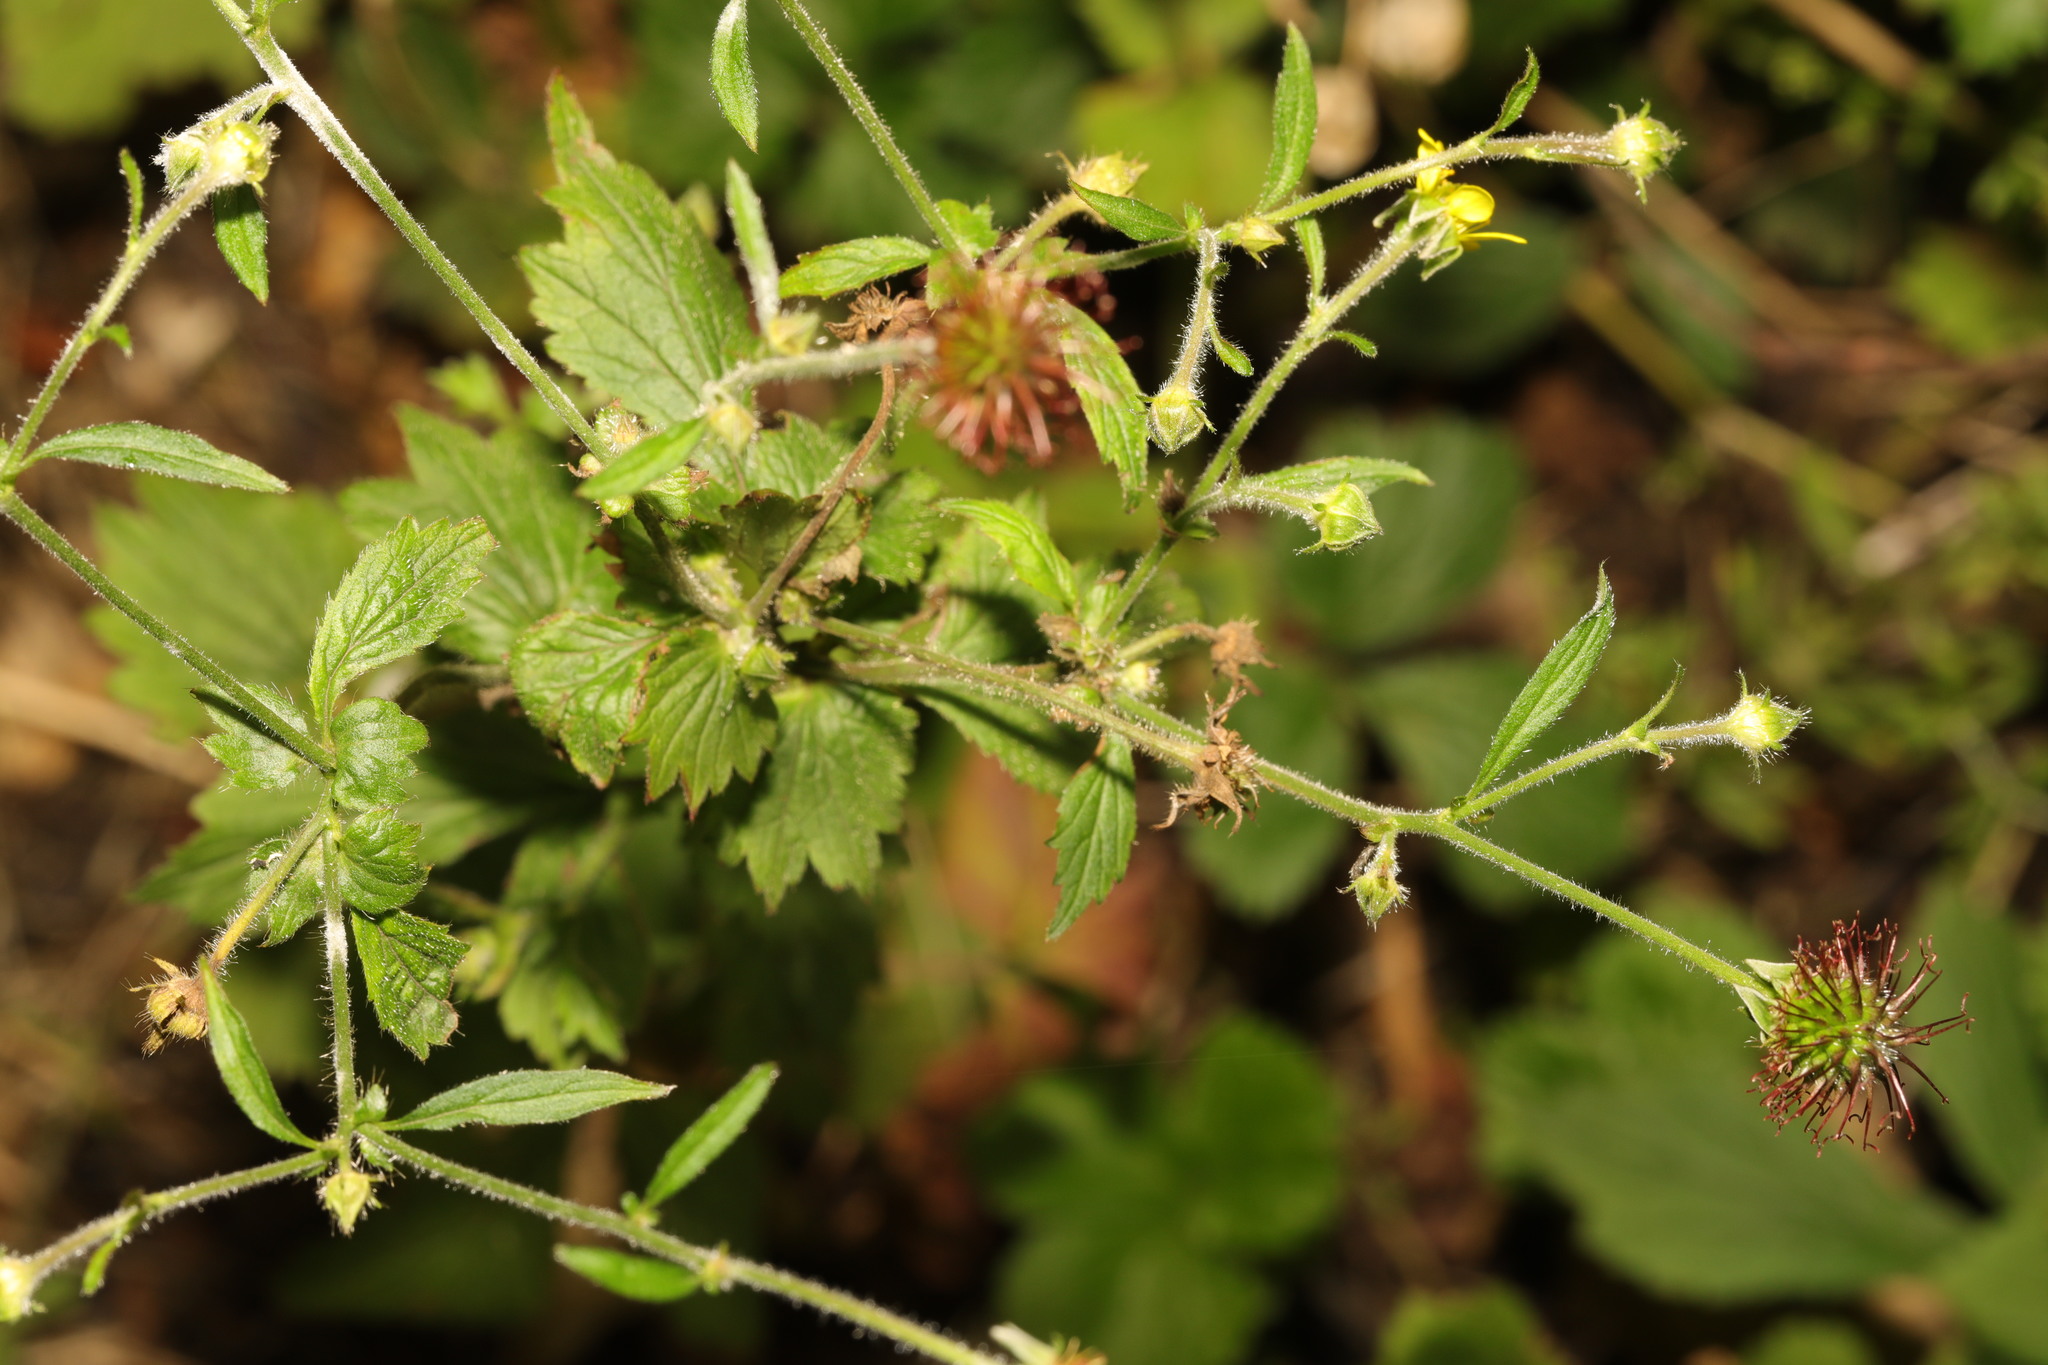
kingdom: Plantae
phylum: Tracheophyta
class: Magnoliopsida
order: Rosales
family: Rosaceae
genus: Geum
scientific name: Geum urbanum
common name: Wood avens
